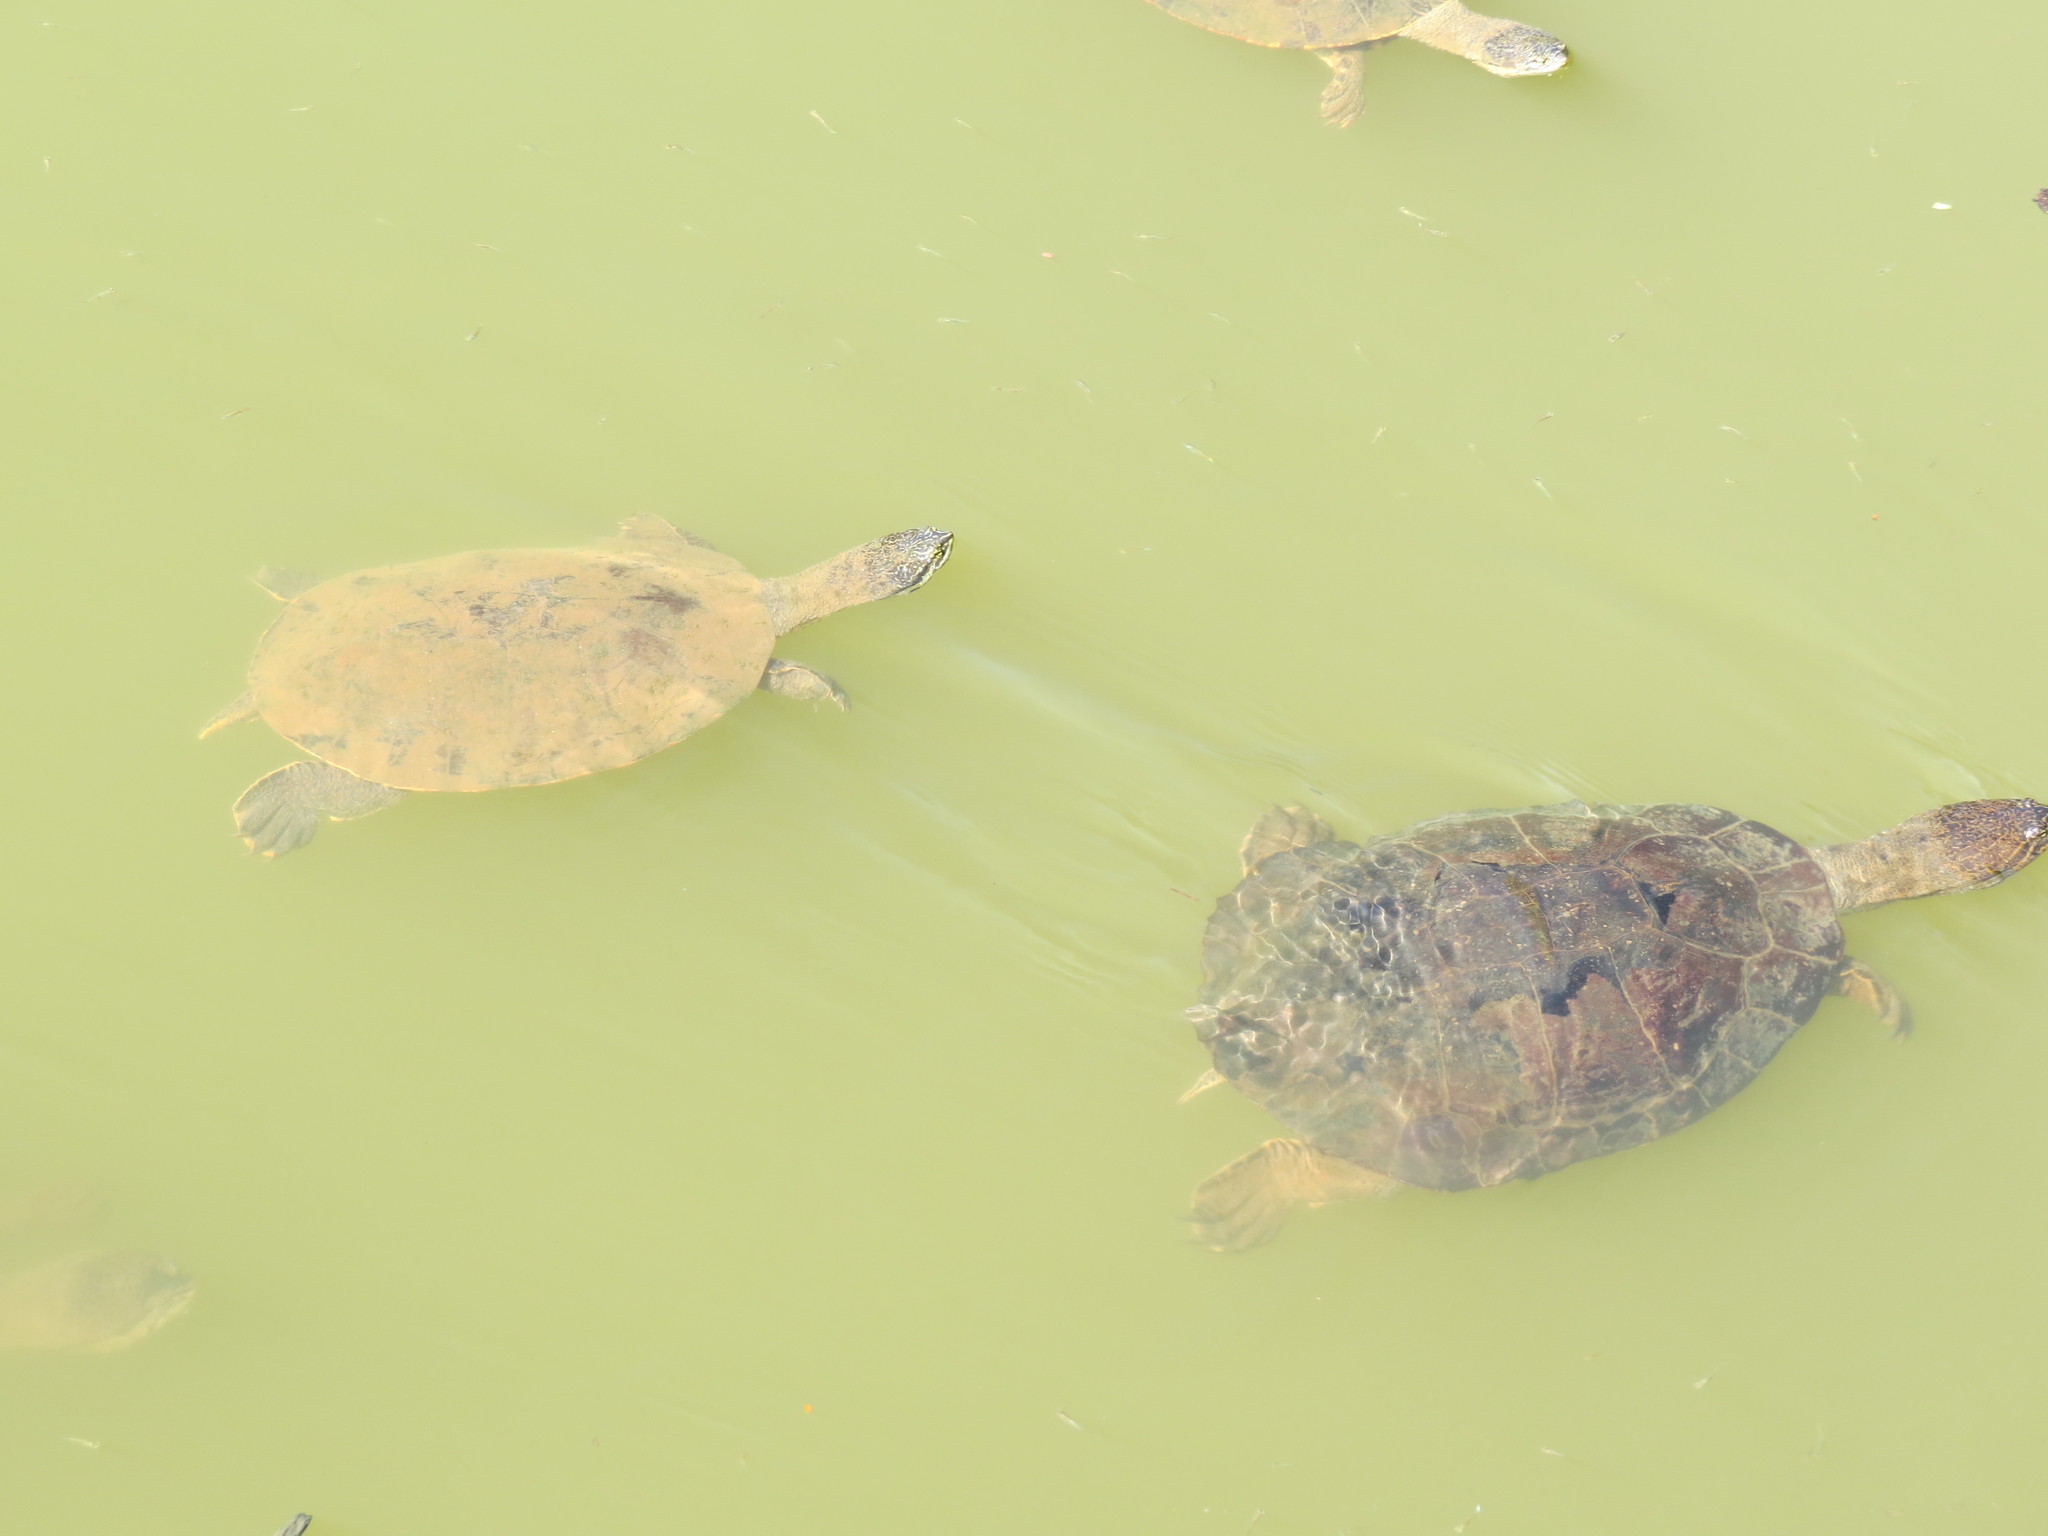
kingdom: Animalia
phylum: Chordata
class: Testudines
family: Chelidae
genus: Phrynops
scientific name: Phrynops geoffroanus
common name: Side-necked turtle of geoffroy
